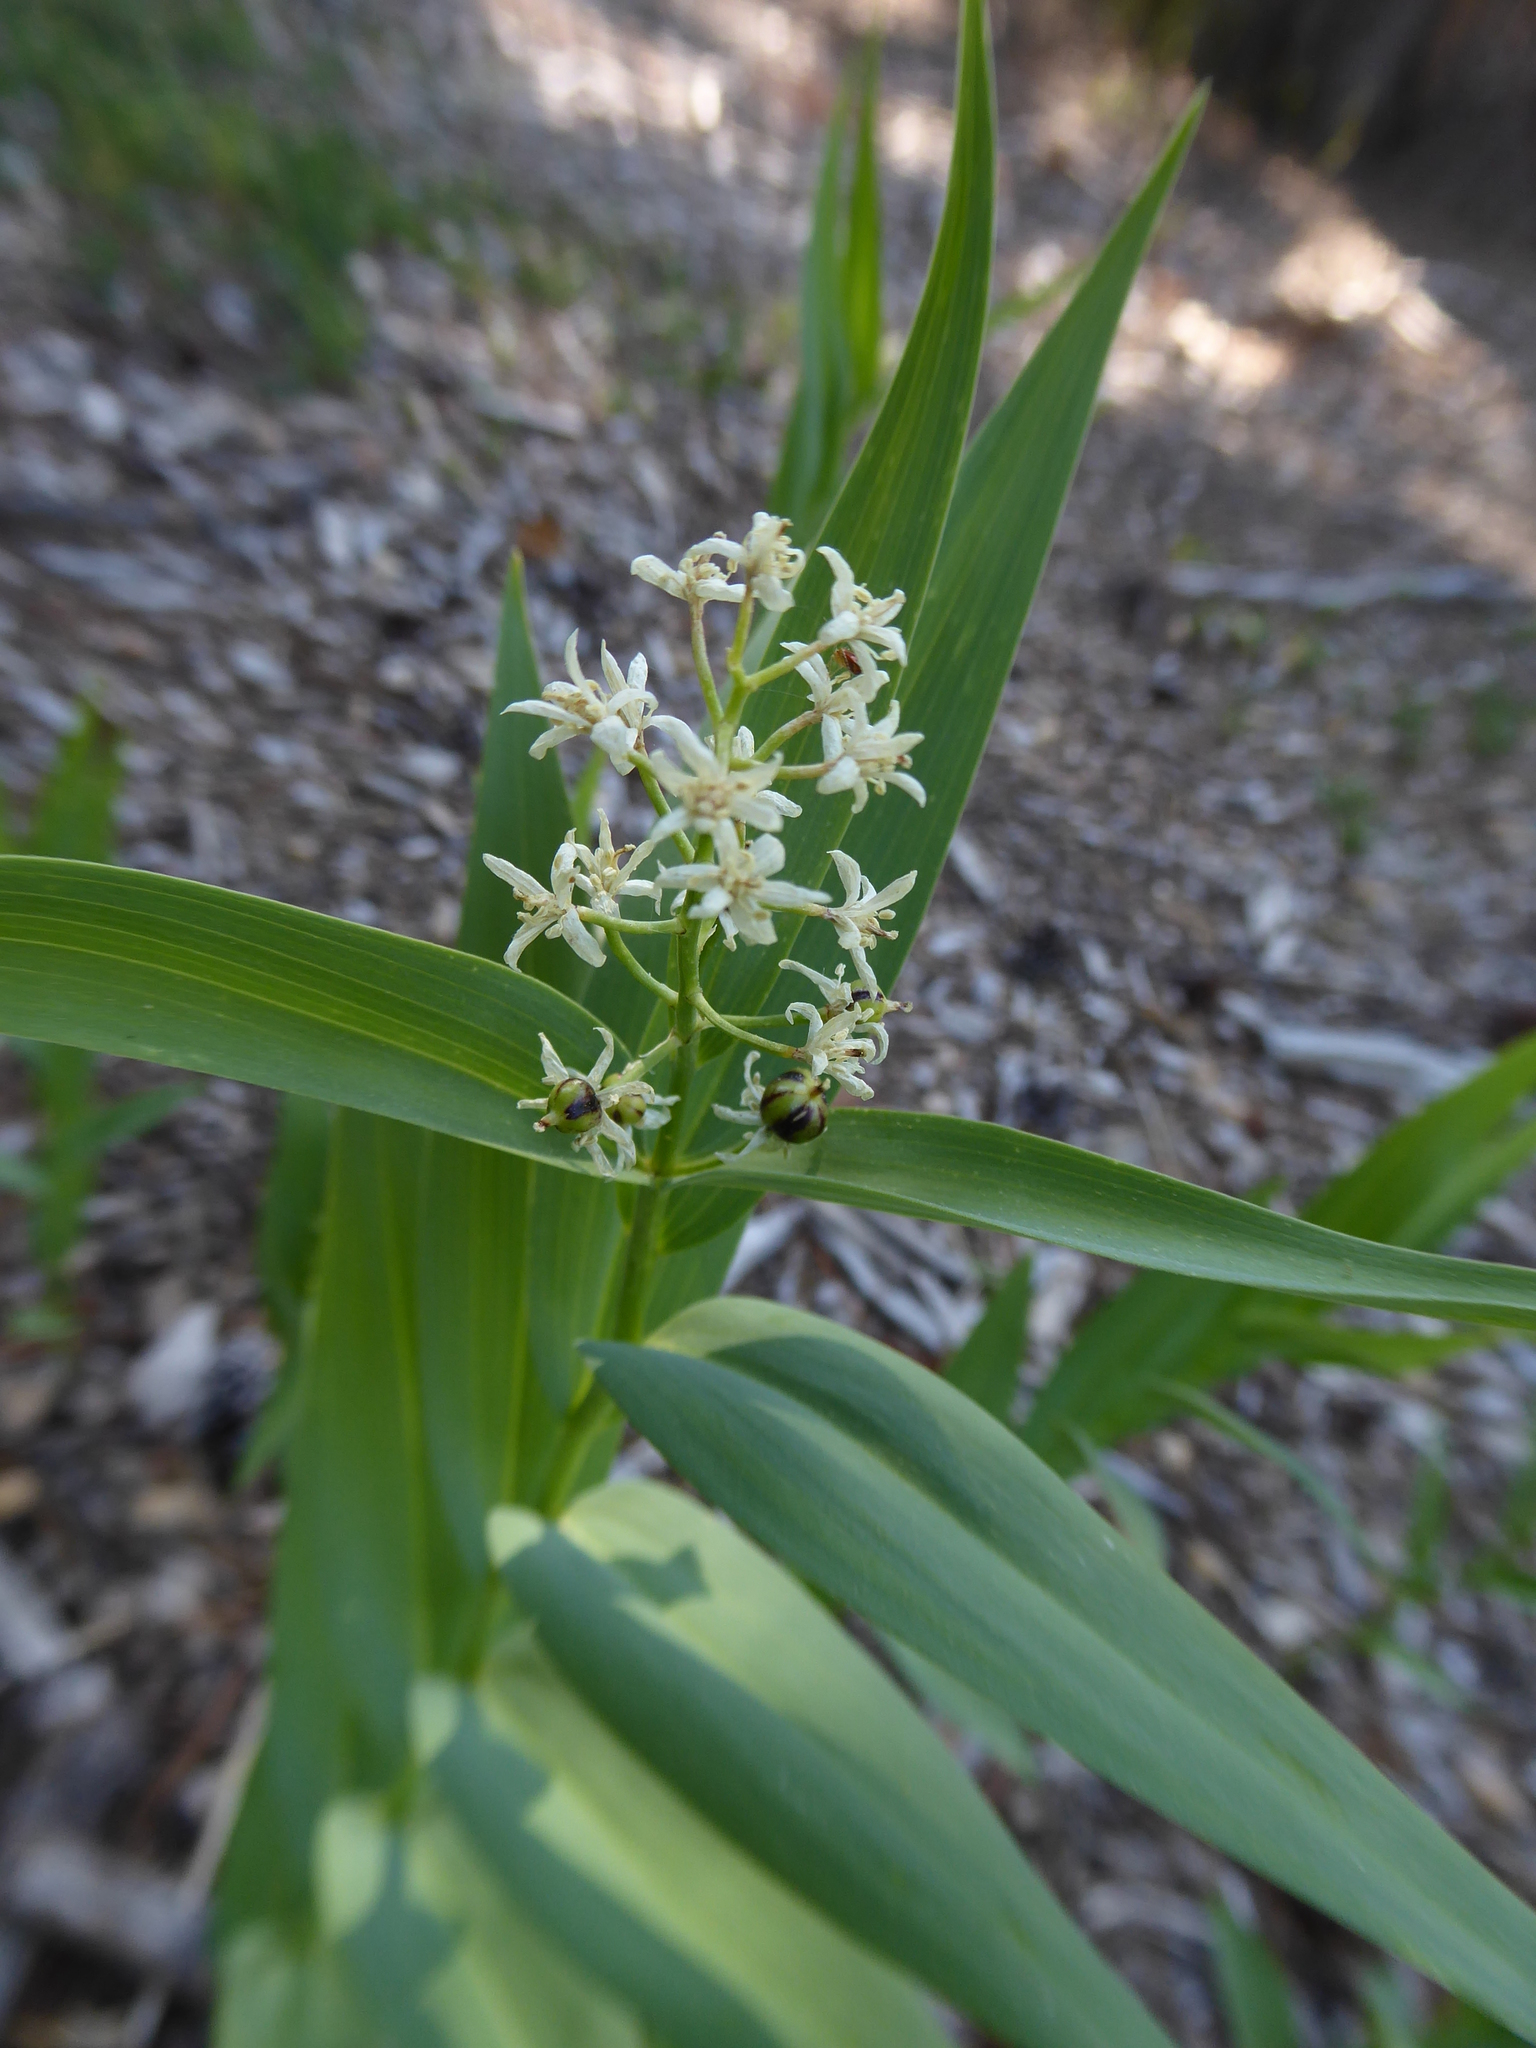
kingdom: Plantae
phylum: Tracheophyta
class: Liliopsida
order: Asparagales
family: Asparagaceae
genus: Maianthemum
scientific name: Maianthemum stellatum
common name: Little false solomon's seal
